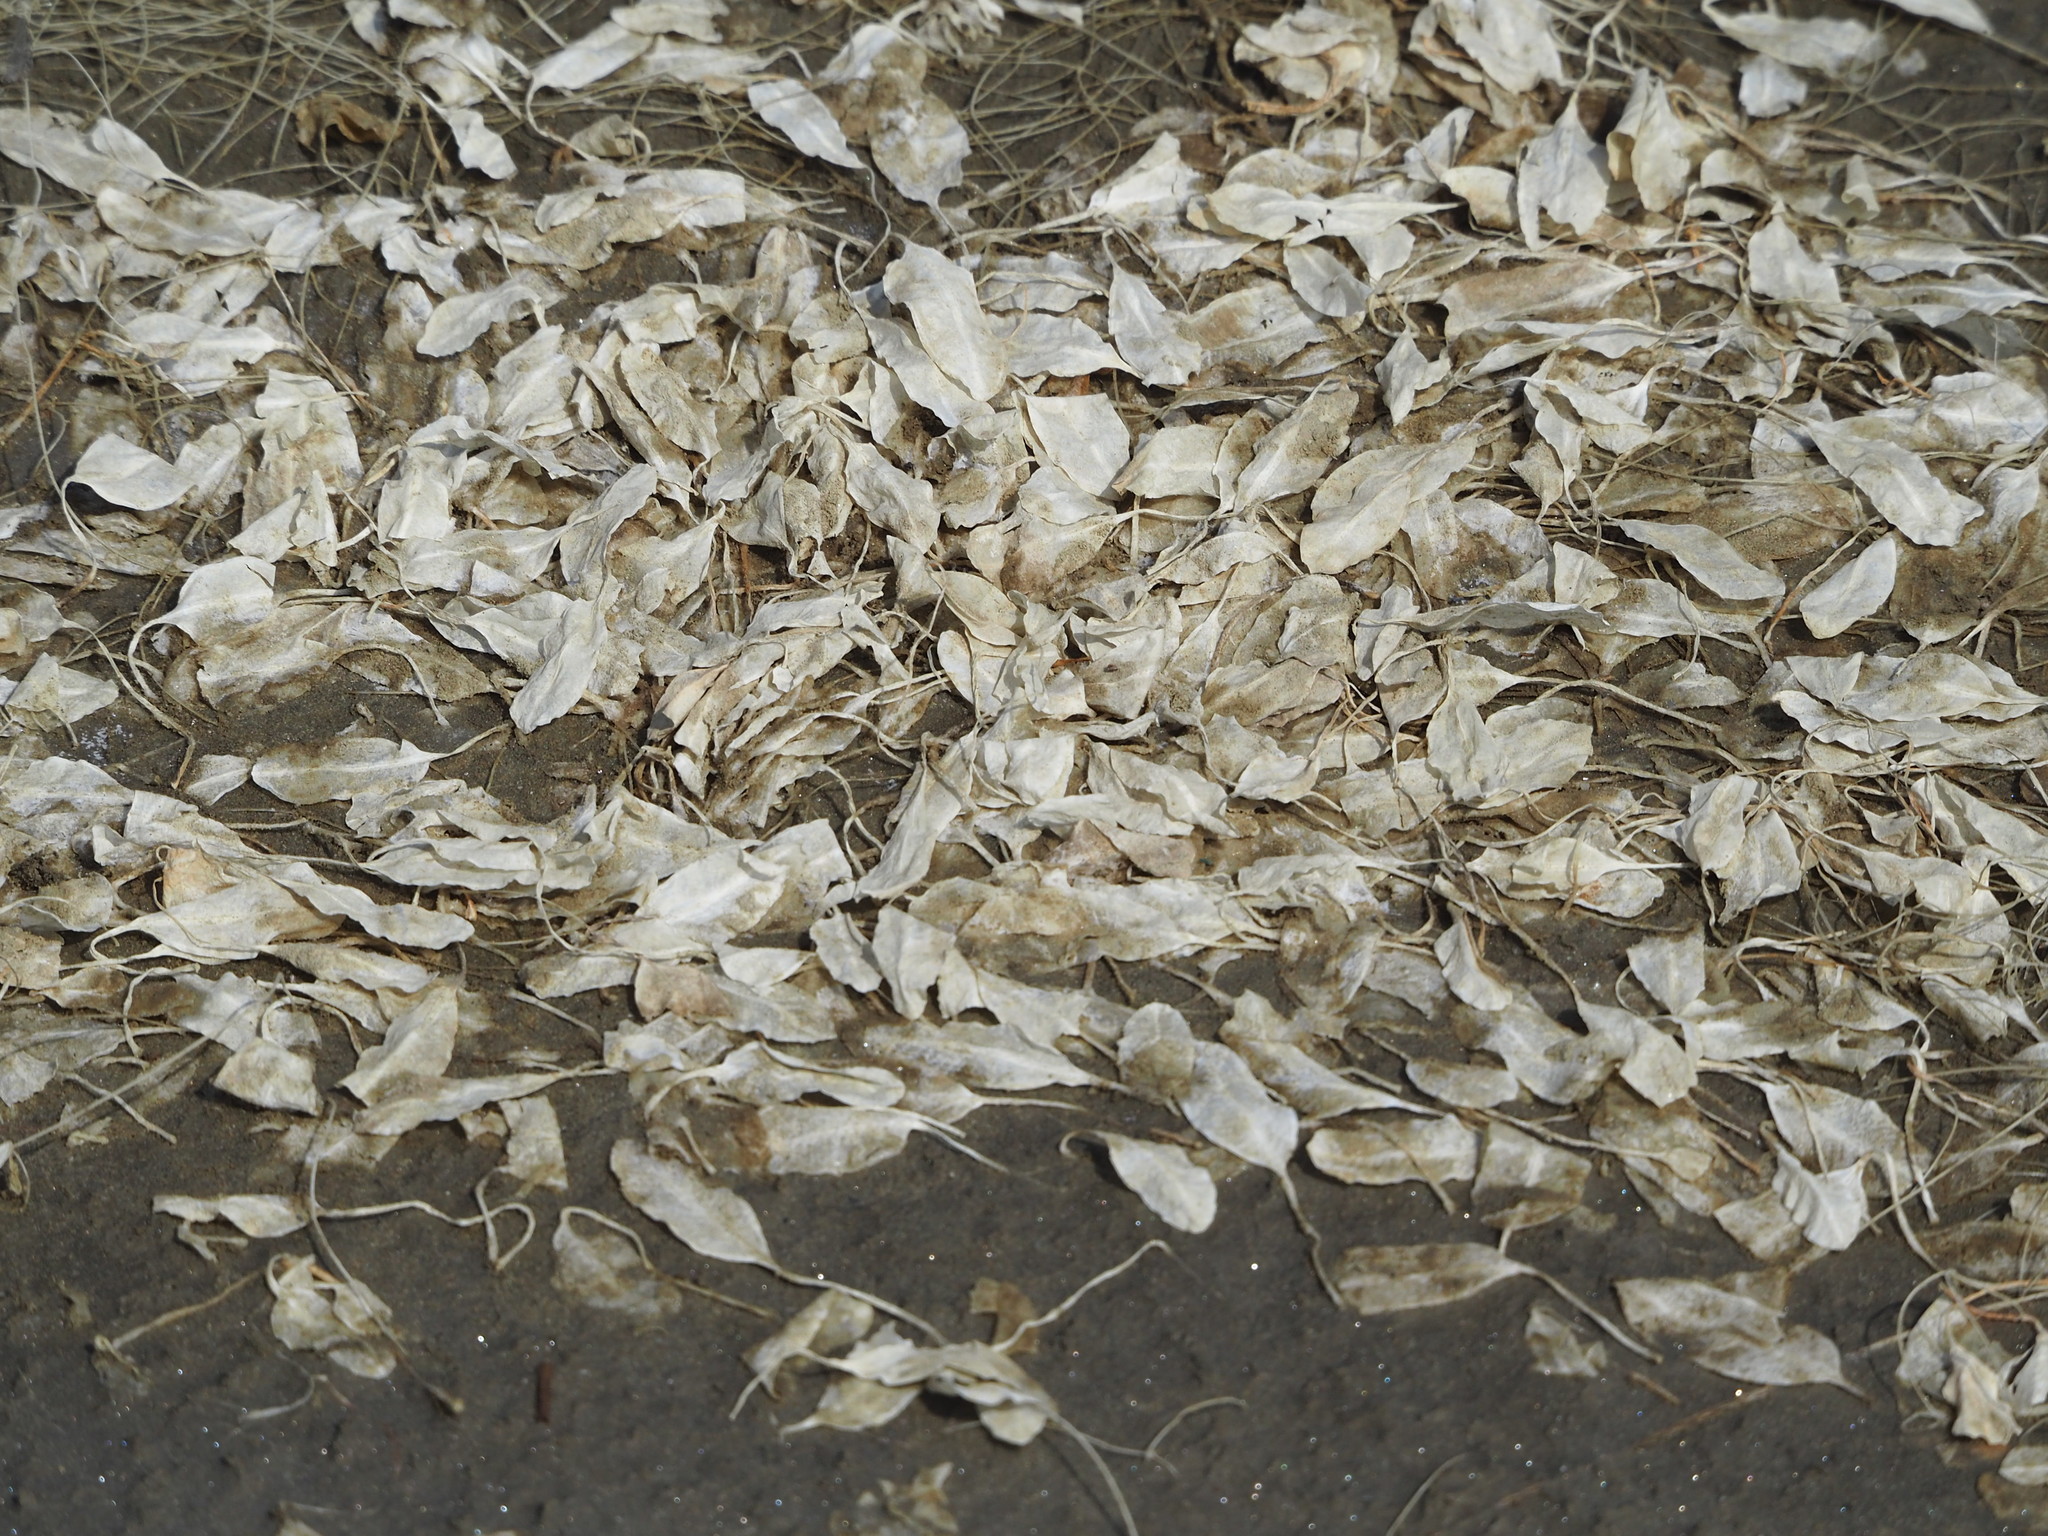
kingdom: Plantae
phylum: Tracheophyta
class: Liliopsida
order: Alismatales
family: Hydrocharitaceae
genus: Halophila
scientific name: Halophila ovalis
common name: Species code: ho
